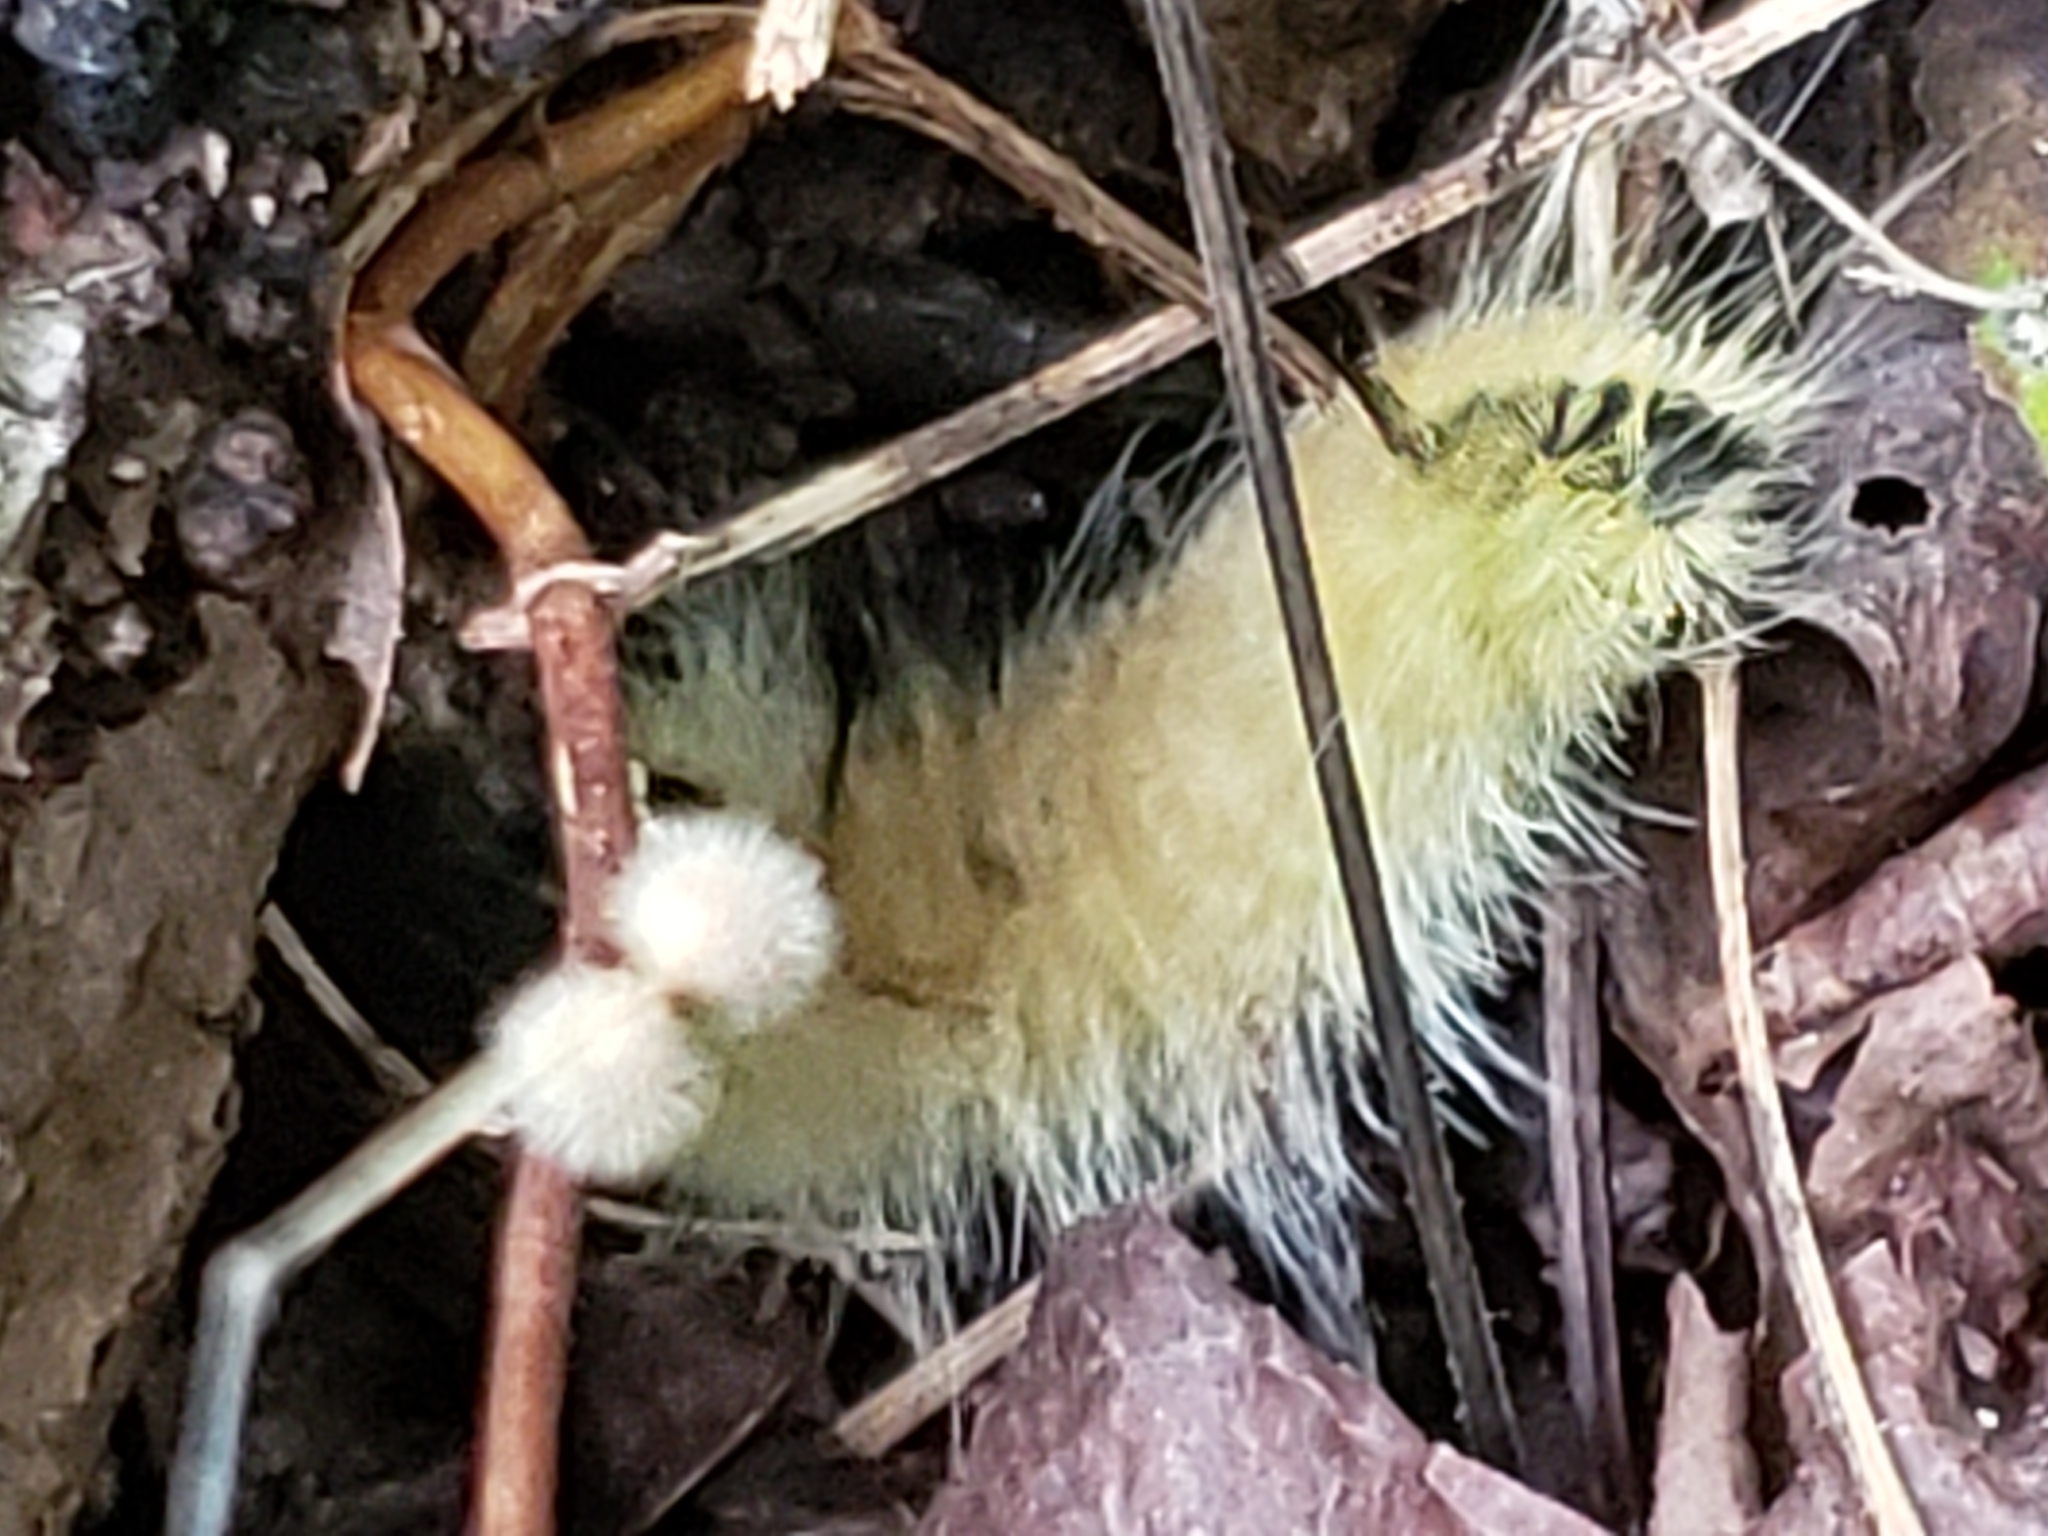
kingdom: Animalia
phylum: Arthropoda
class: Insecta
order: Lepidoptera
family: Noctuidae
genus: Acronicta
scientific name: Acronicta americana
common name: American dagger
